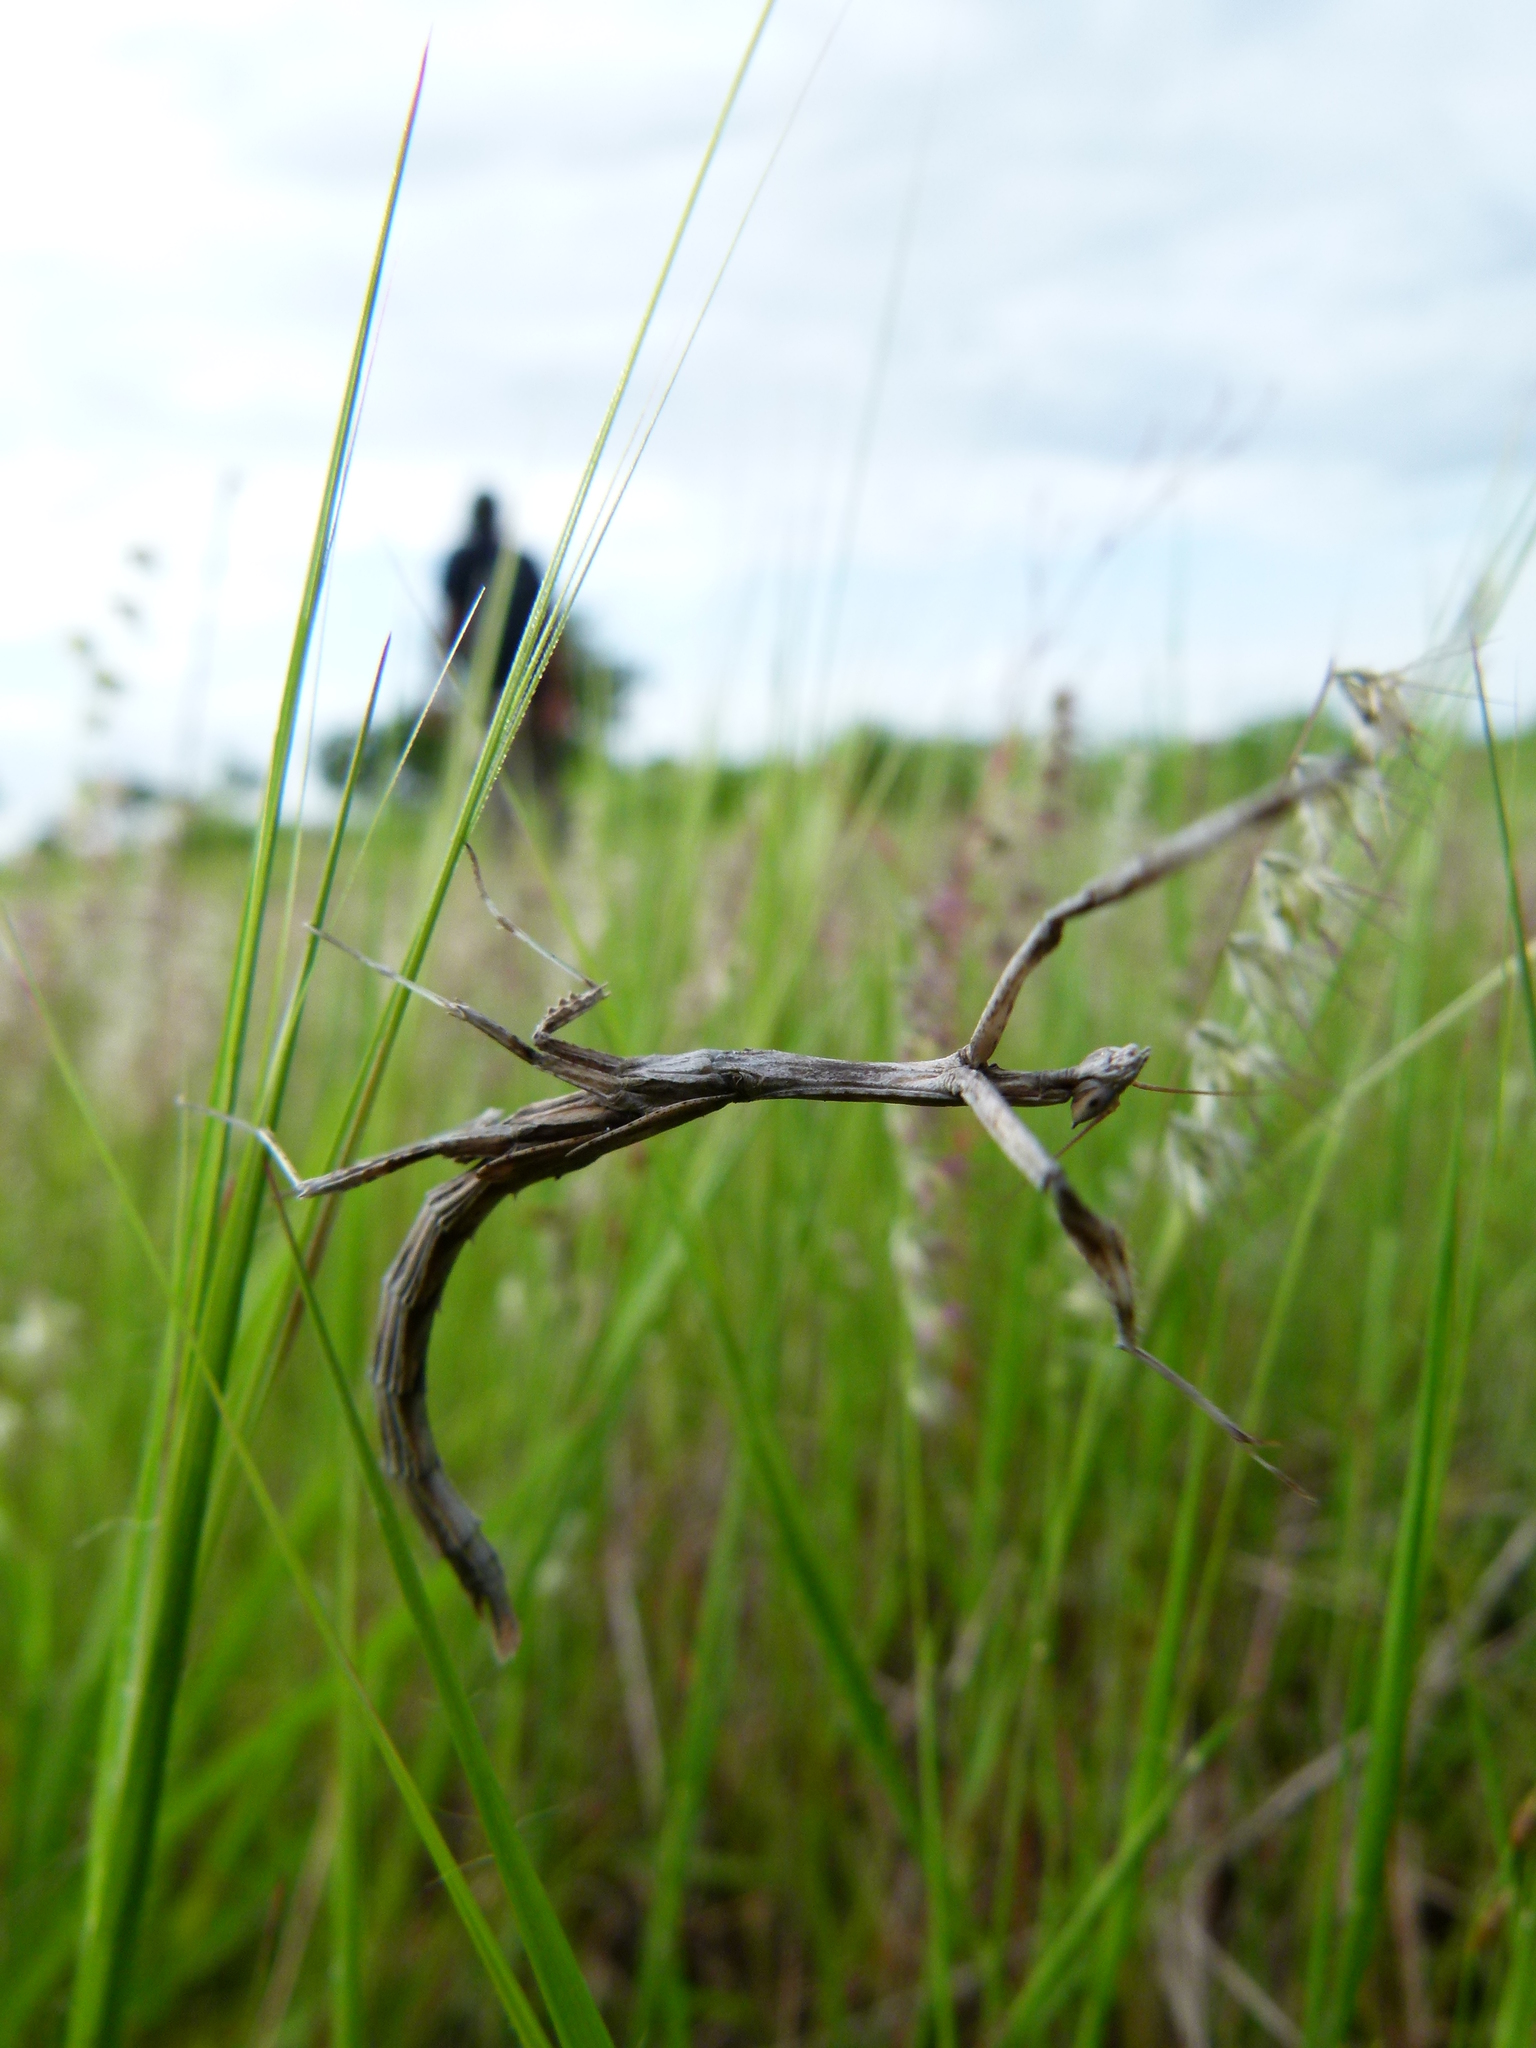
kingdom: Animalia
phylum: Arthropoda
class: Insecta
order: Mantodea
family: Toxoderidae
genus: Toxomantis
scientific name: Toxomantis westwoodi
